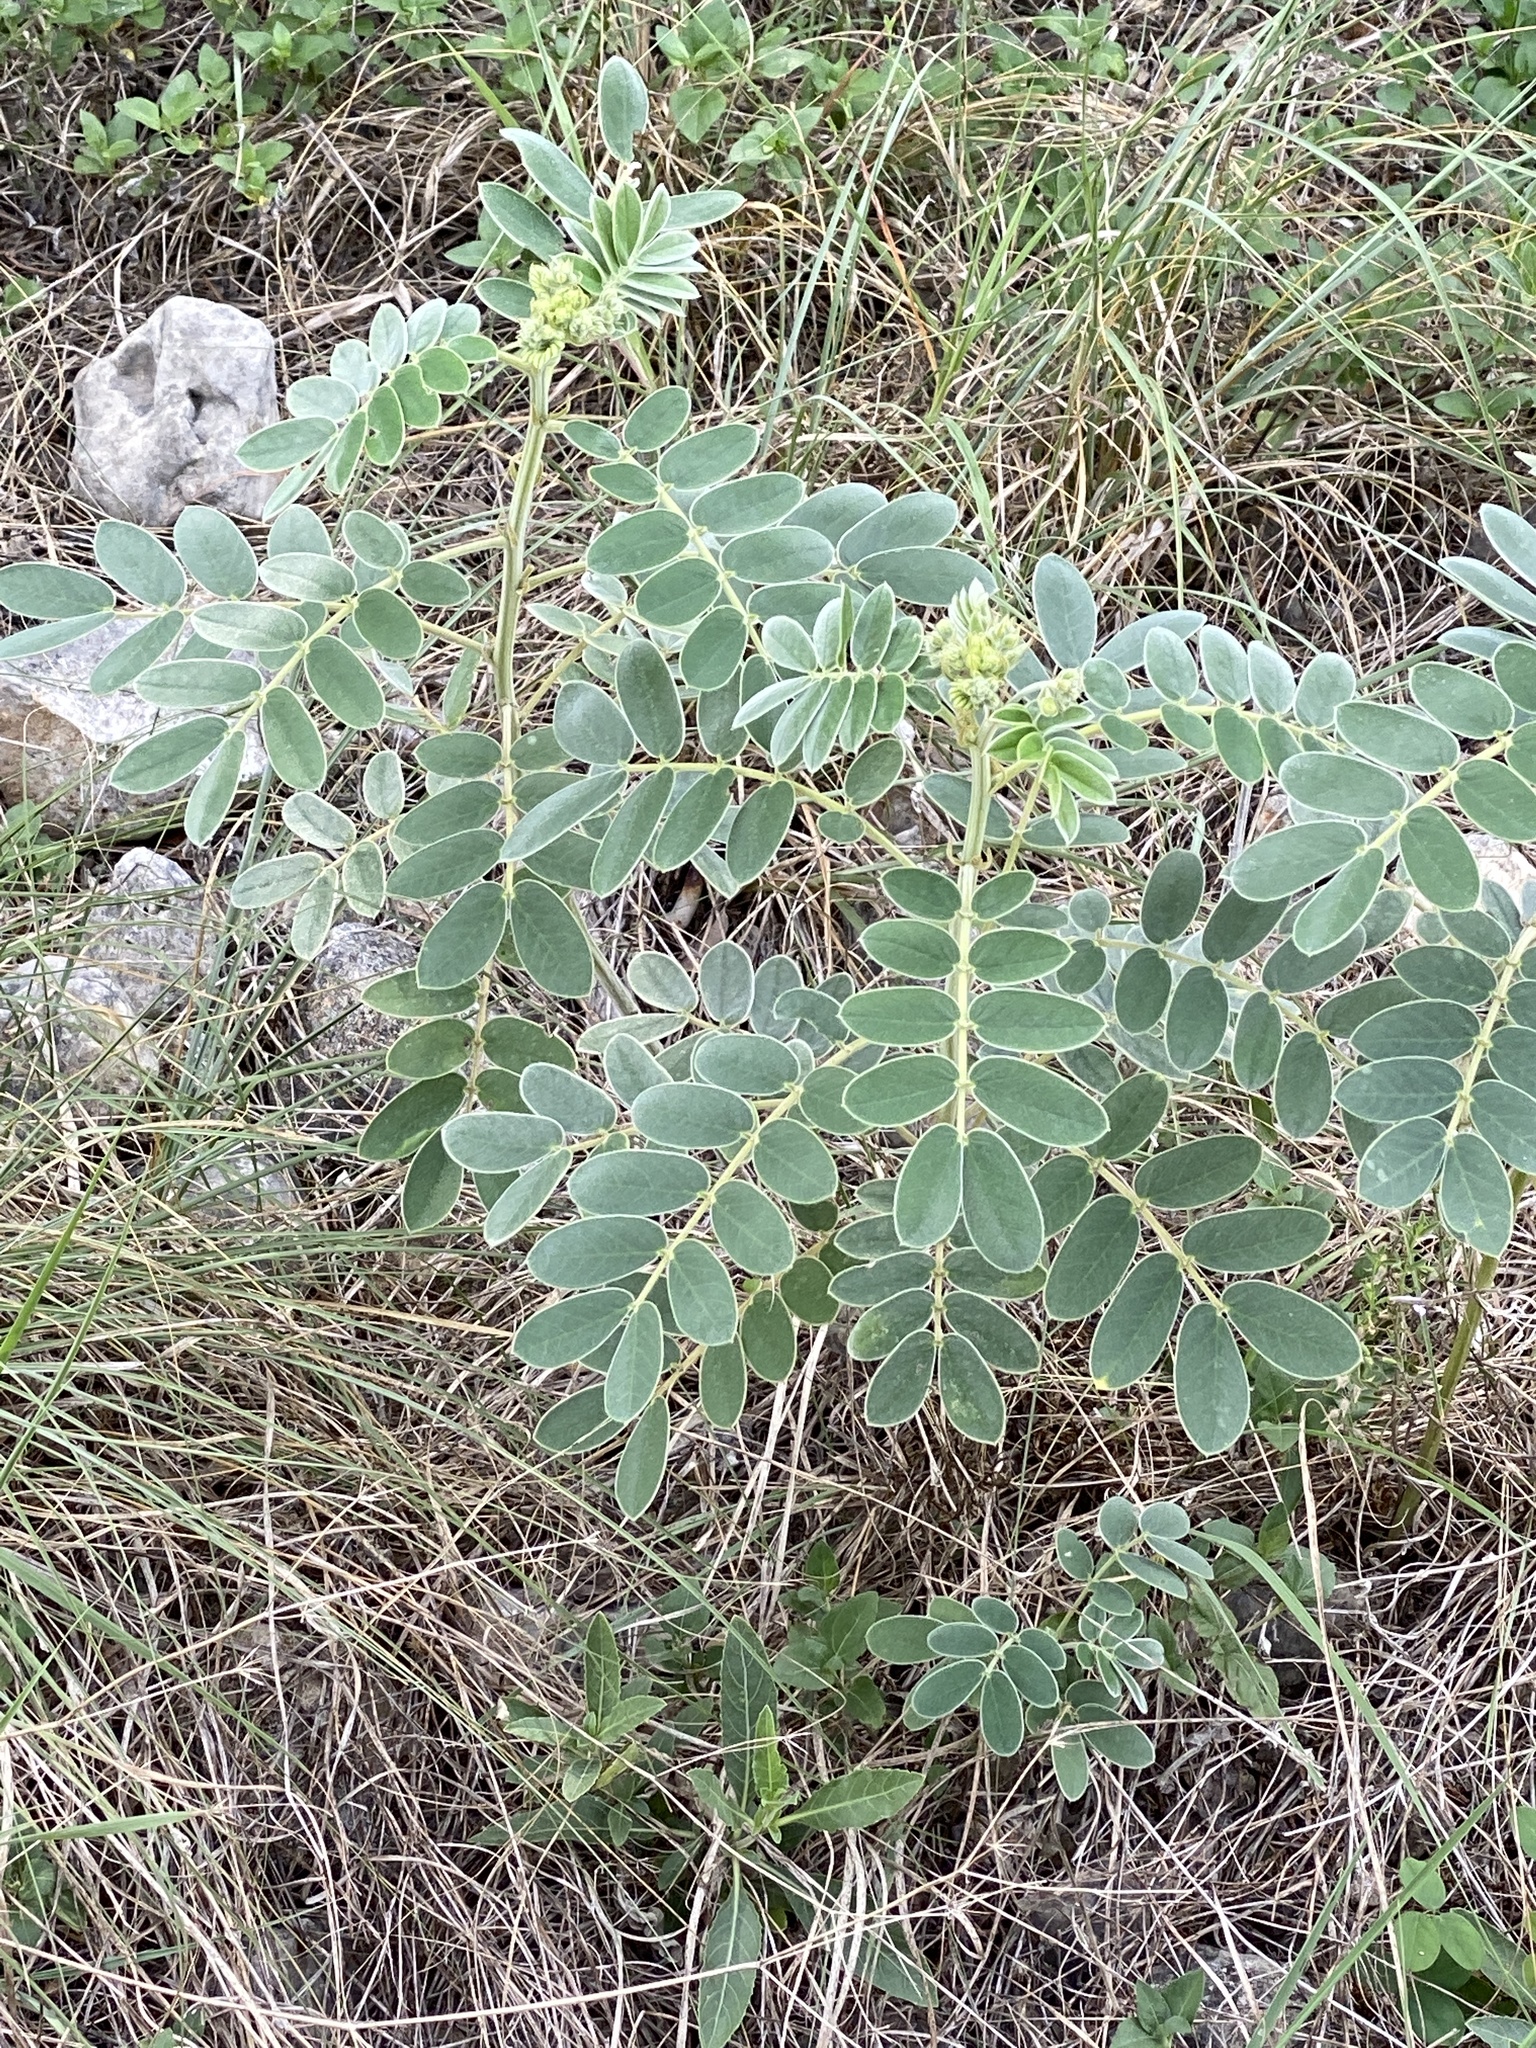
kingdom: Plantae
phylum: Tracheophyta
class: Magnoliopsida
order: Fabales
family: Fabaceae
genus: Senna
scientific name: Senna lindheimeriana
